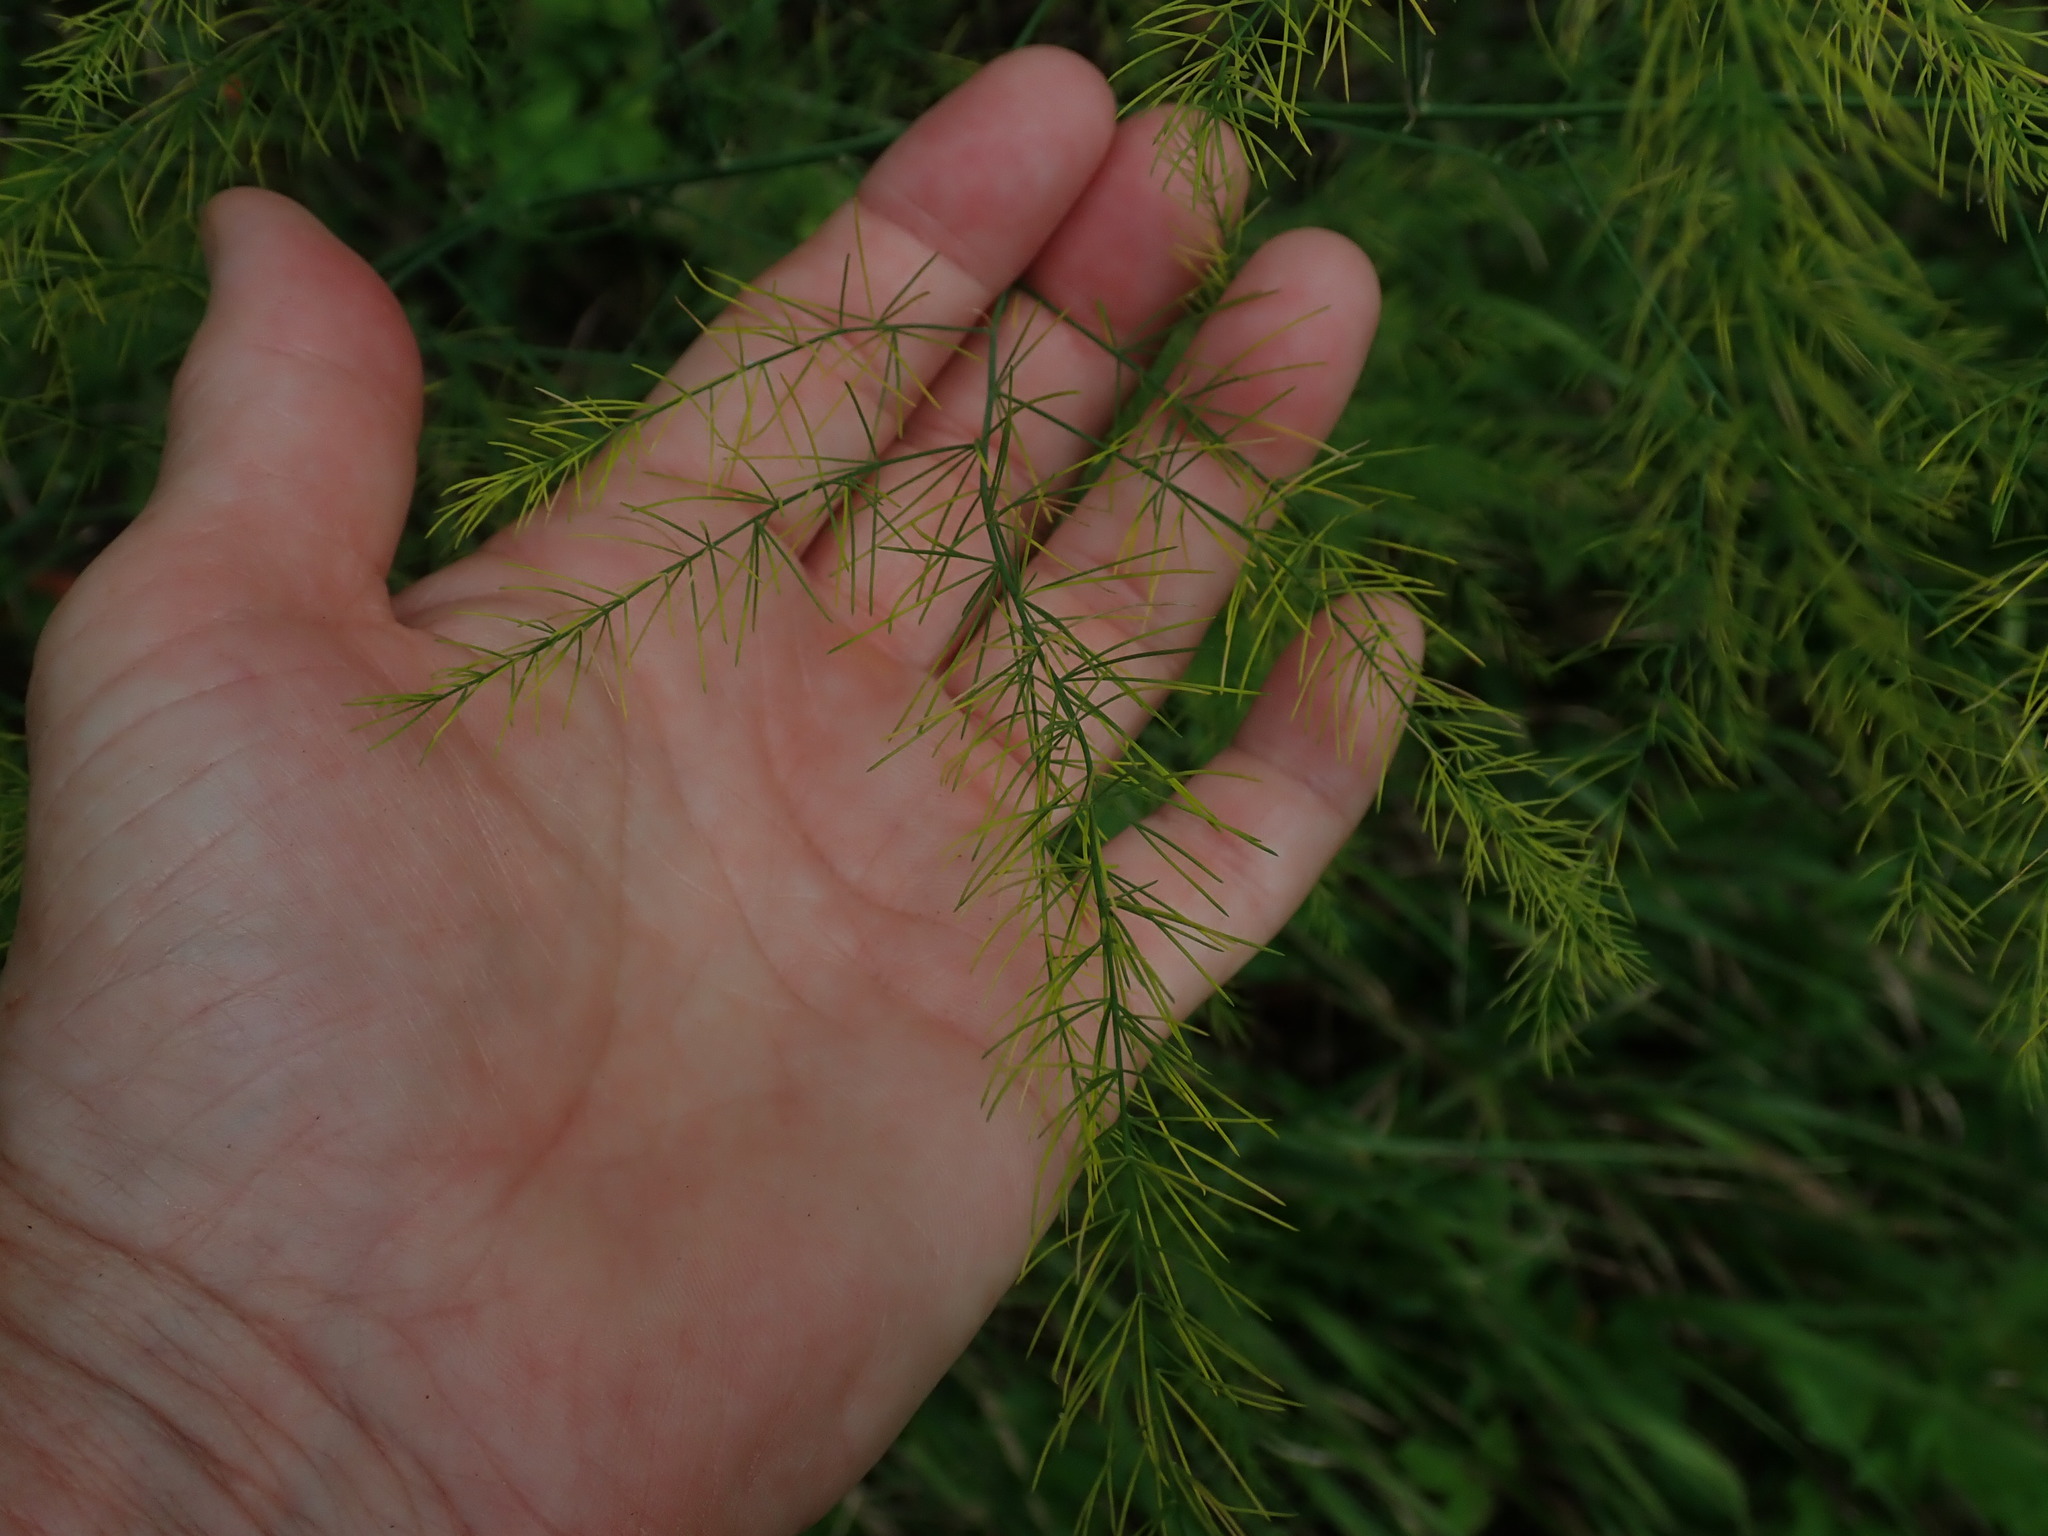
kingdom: Plantae
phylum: Tracheophyta
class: Liliopsida
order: Asparagales
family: Asparagaceae
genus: Asparagus
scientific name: Asparagus officinalis
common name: Garden asparagus
